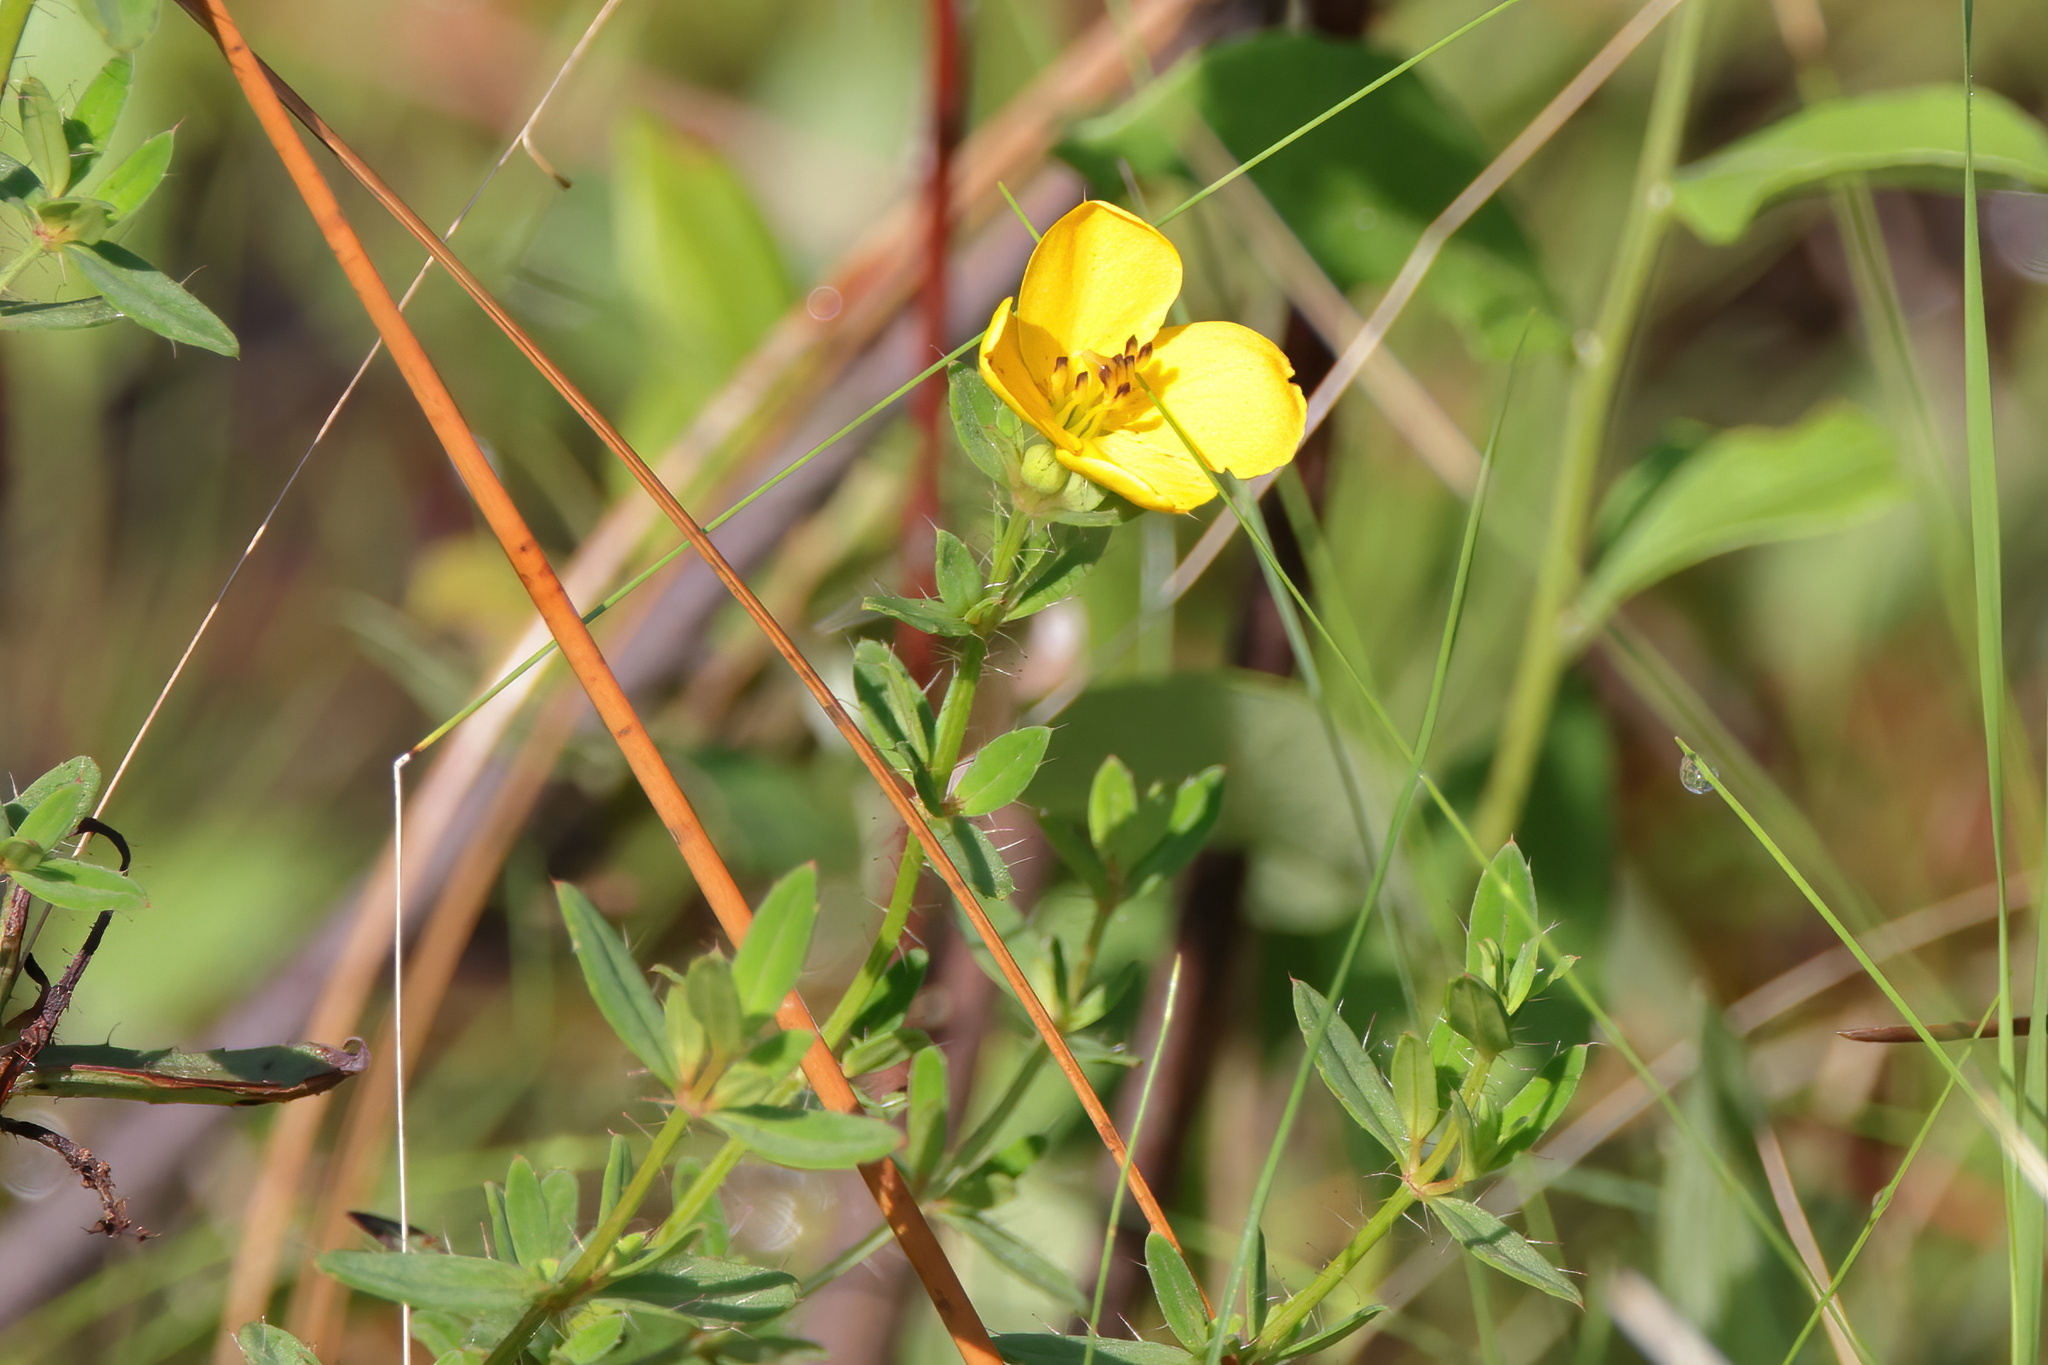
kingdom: Plantae
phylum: Tracheophyta
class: Magnoliopsida
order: Myrtales
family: Melastomataceae
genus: Rhexia
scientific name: Rhexia lutea
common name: Golden meadow-beauty
